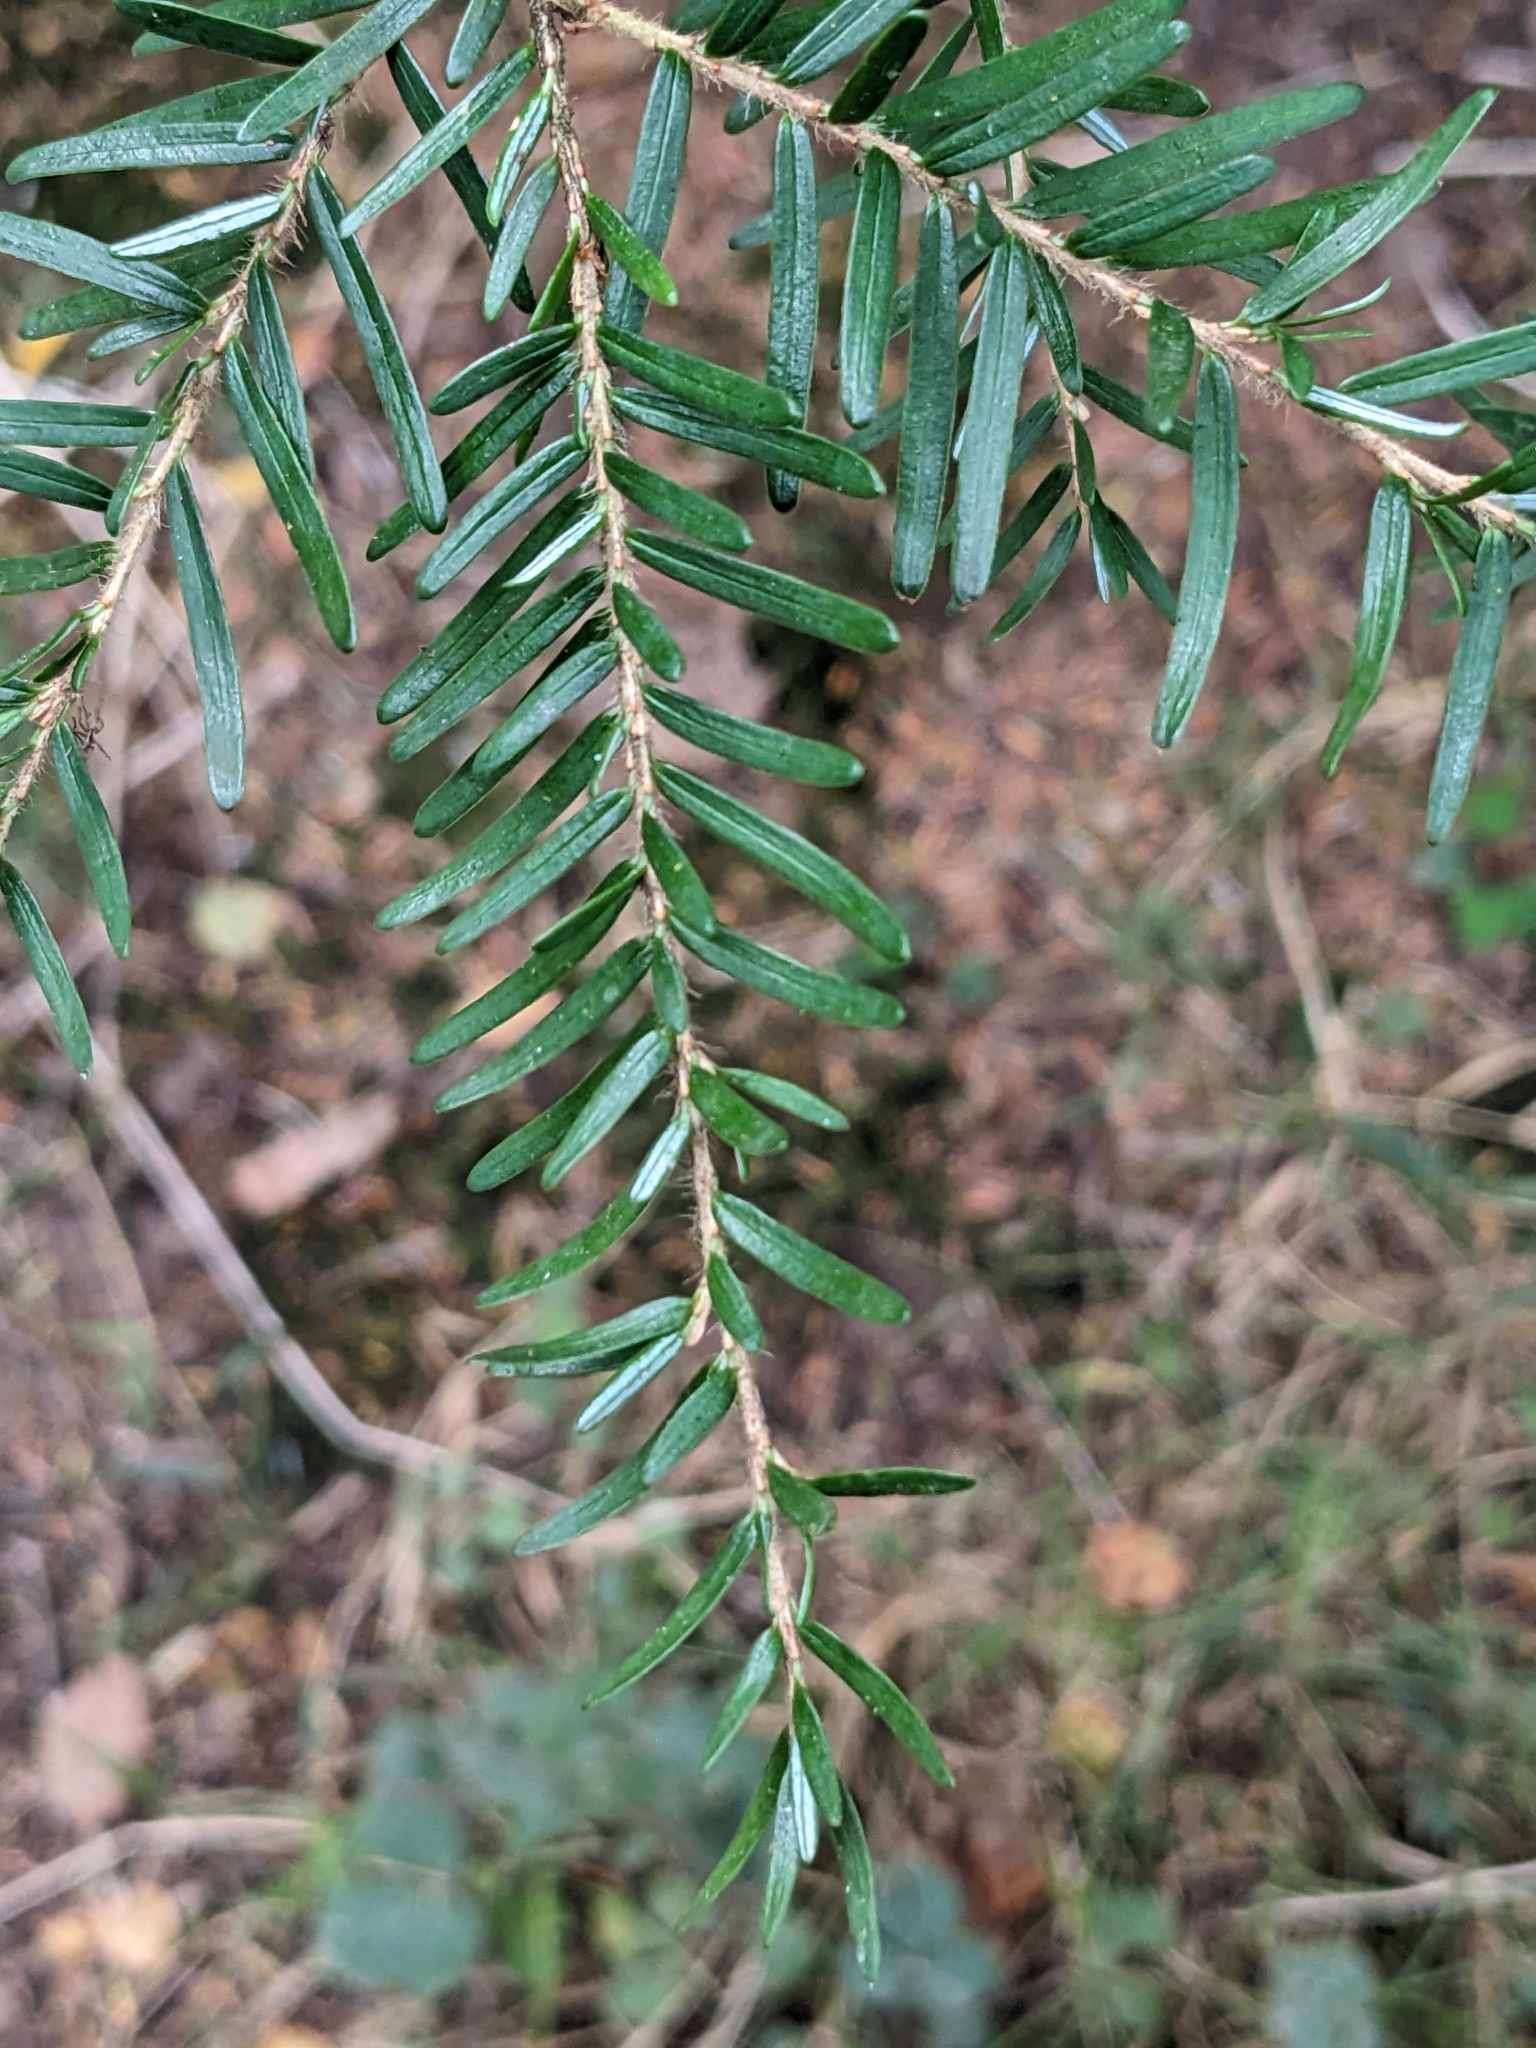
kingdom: Plantae
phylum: Tracheophyta
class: Pinopsida
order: Pinales
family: Pinaceae
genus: Tsuga
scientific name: Tsuga canadensis
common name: Eastern hemlock
